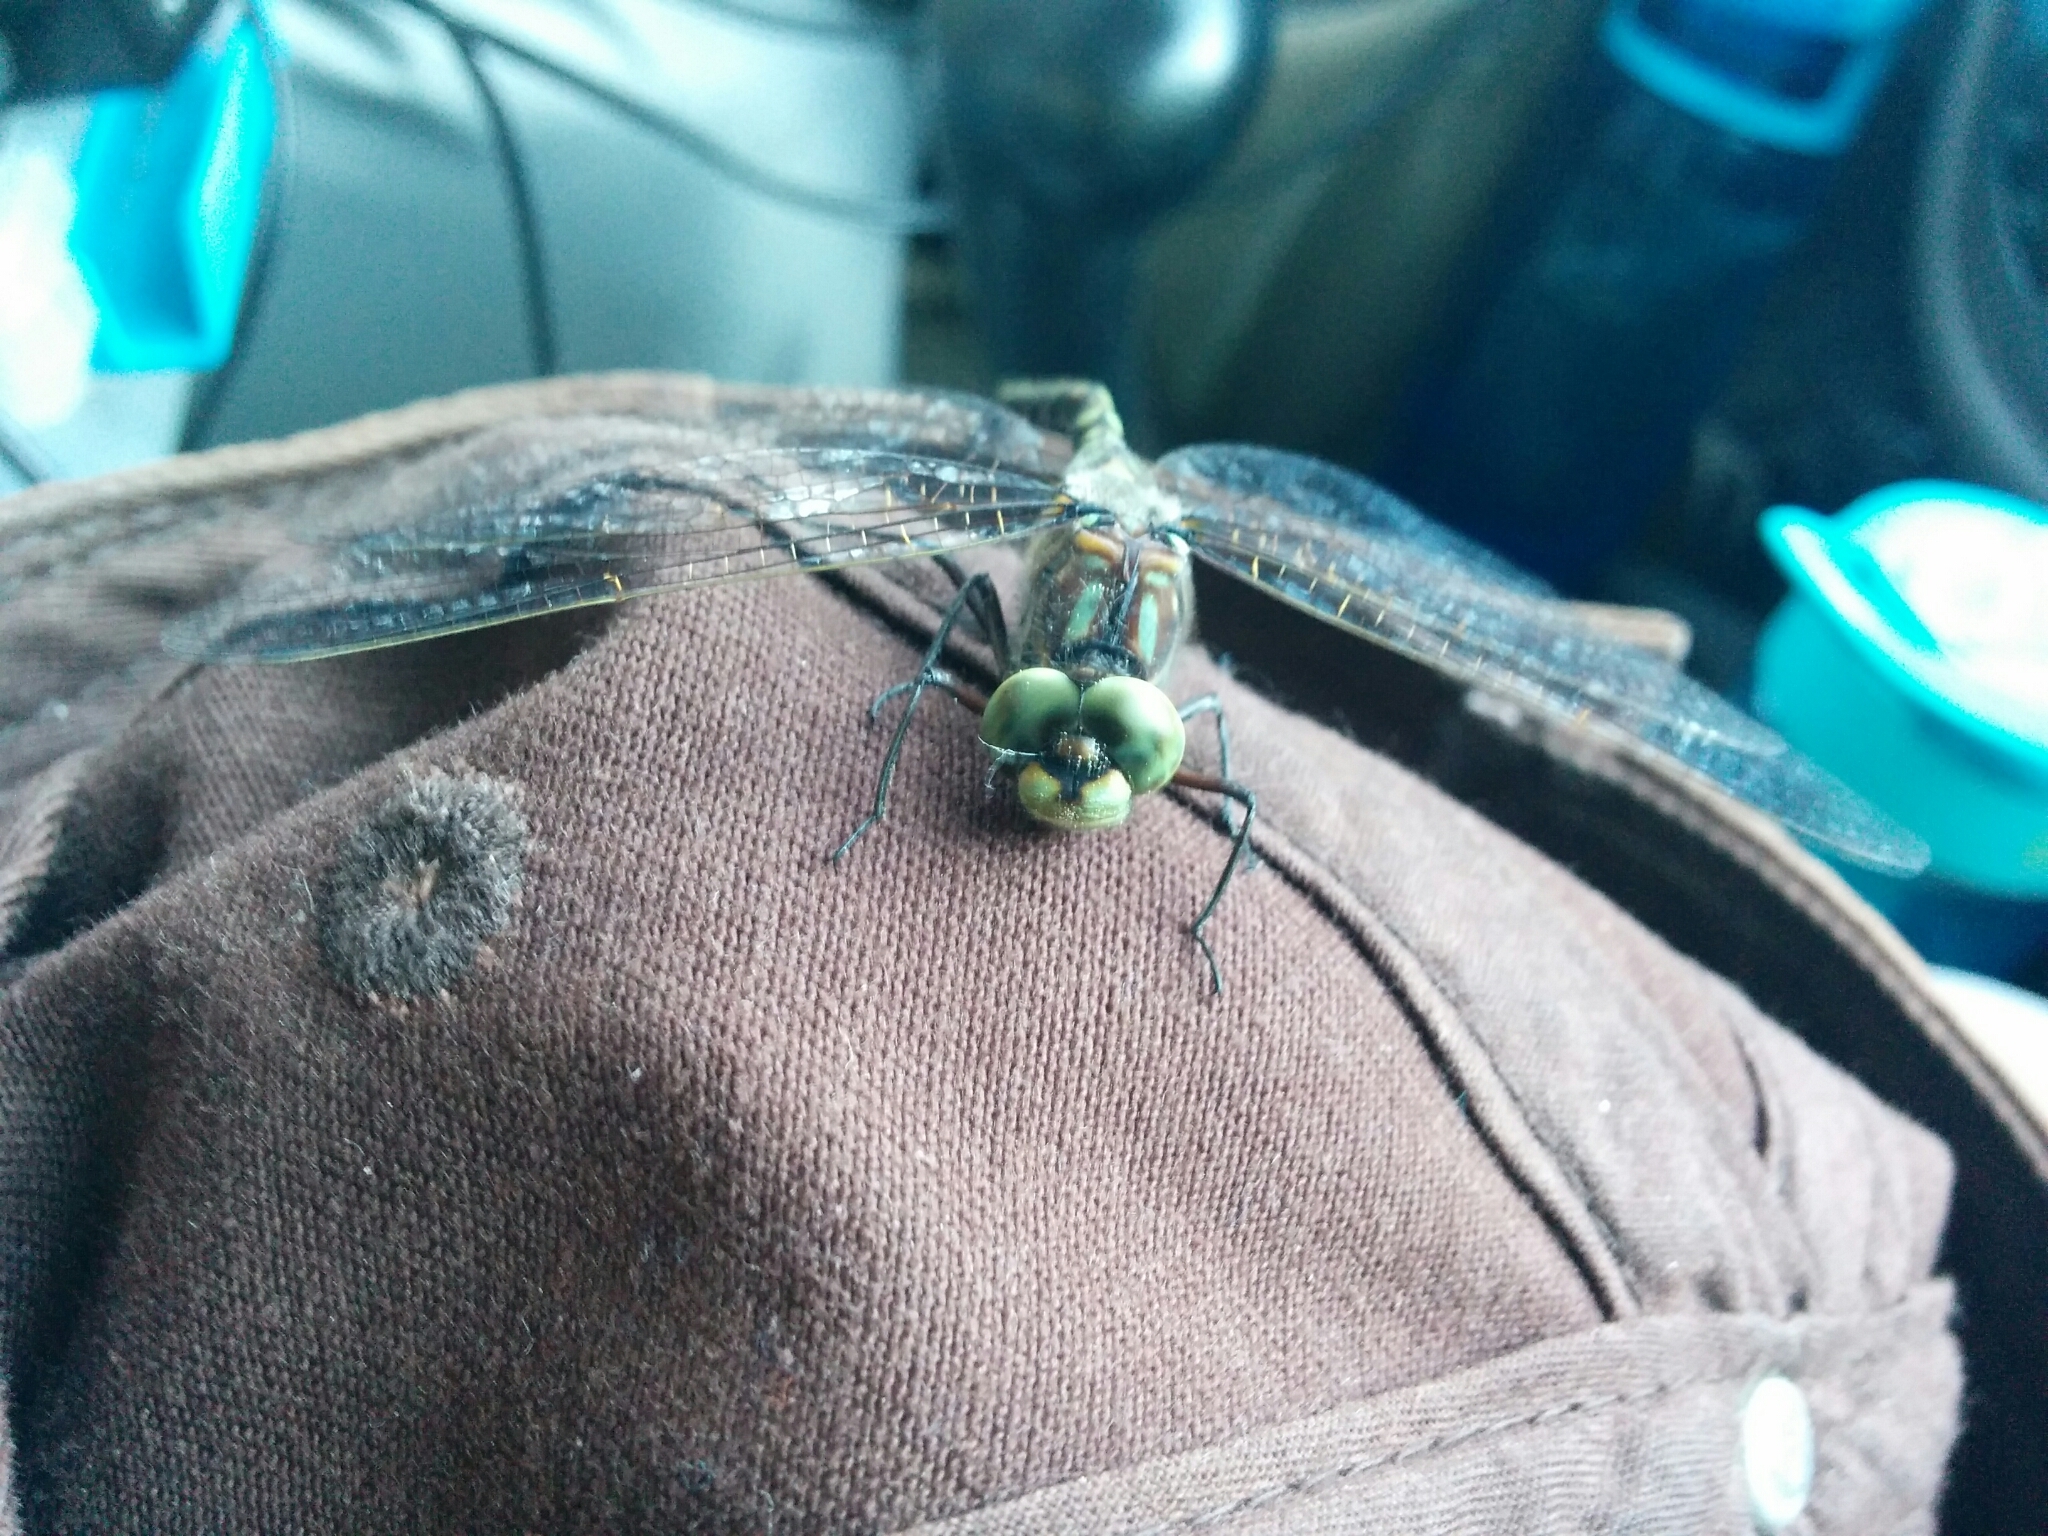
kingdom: Animalia
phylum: Arthropoda
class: Insecta
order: Odonata
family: Aeshnidae
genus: Gomphaeschna
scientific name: Gomphaeschna furcillata
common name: Harlequin darner
